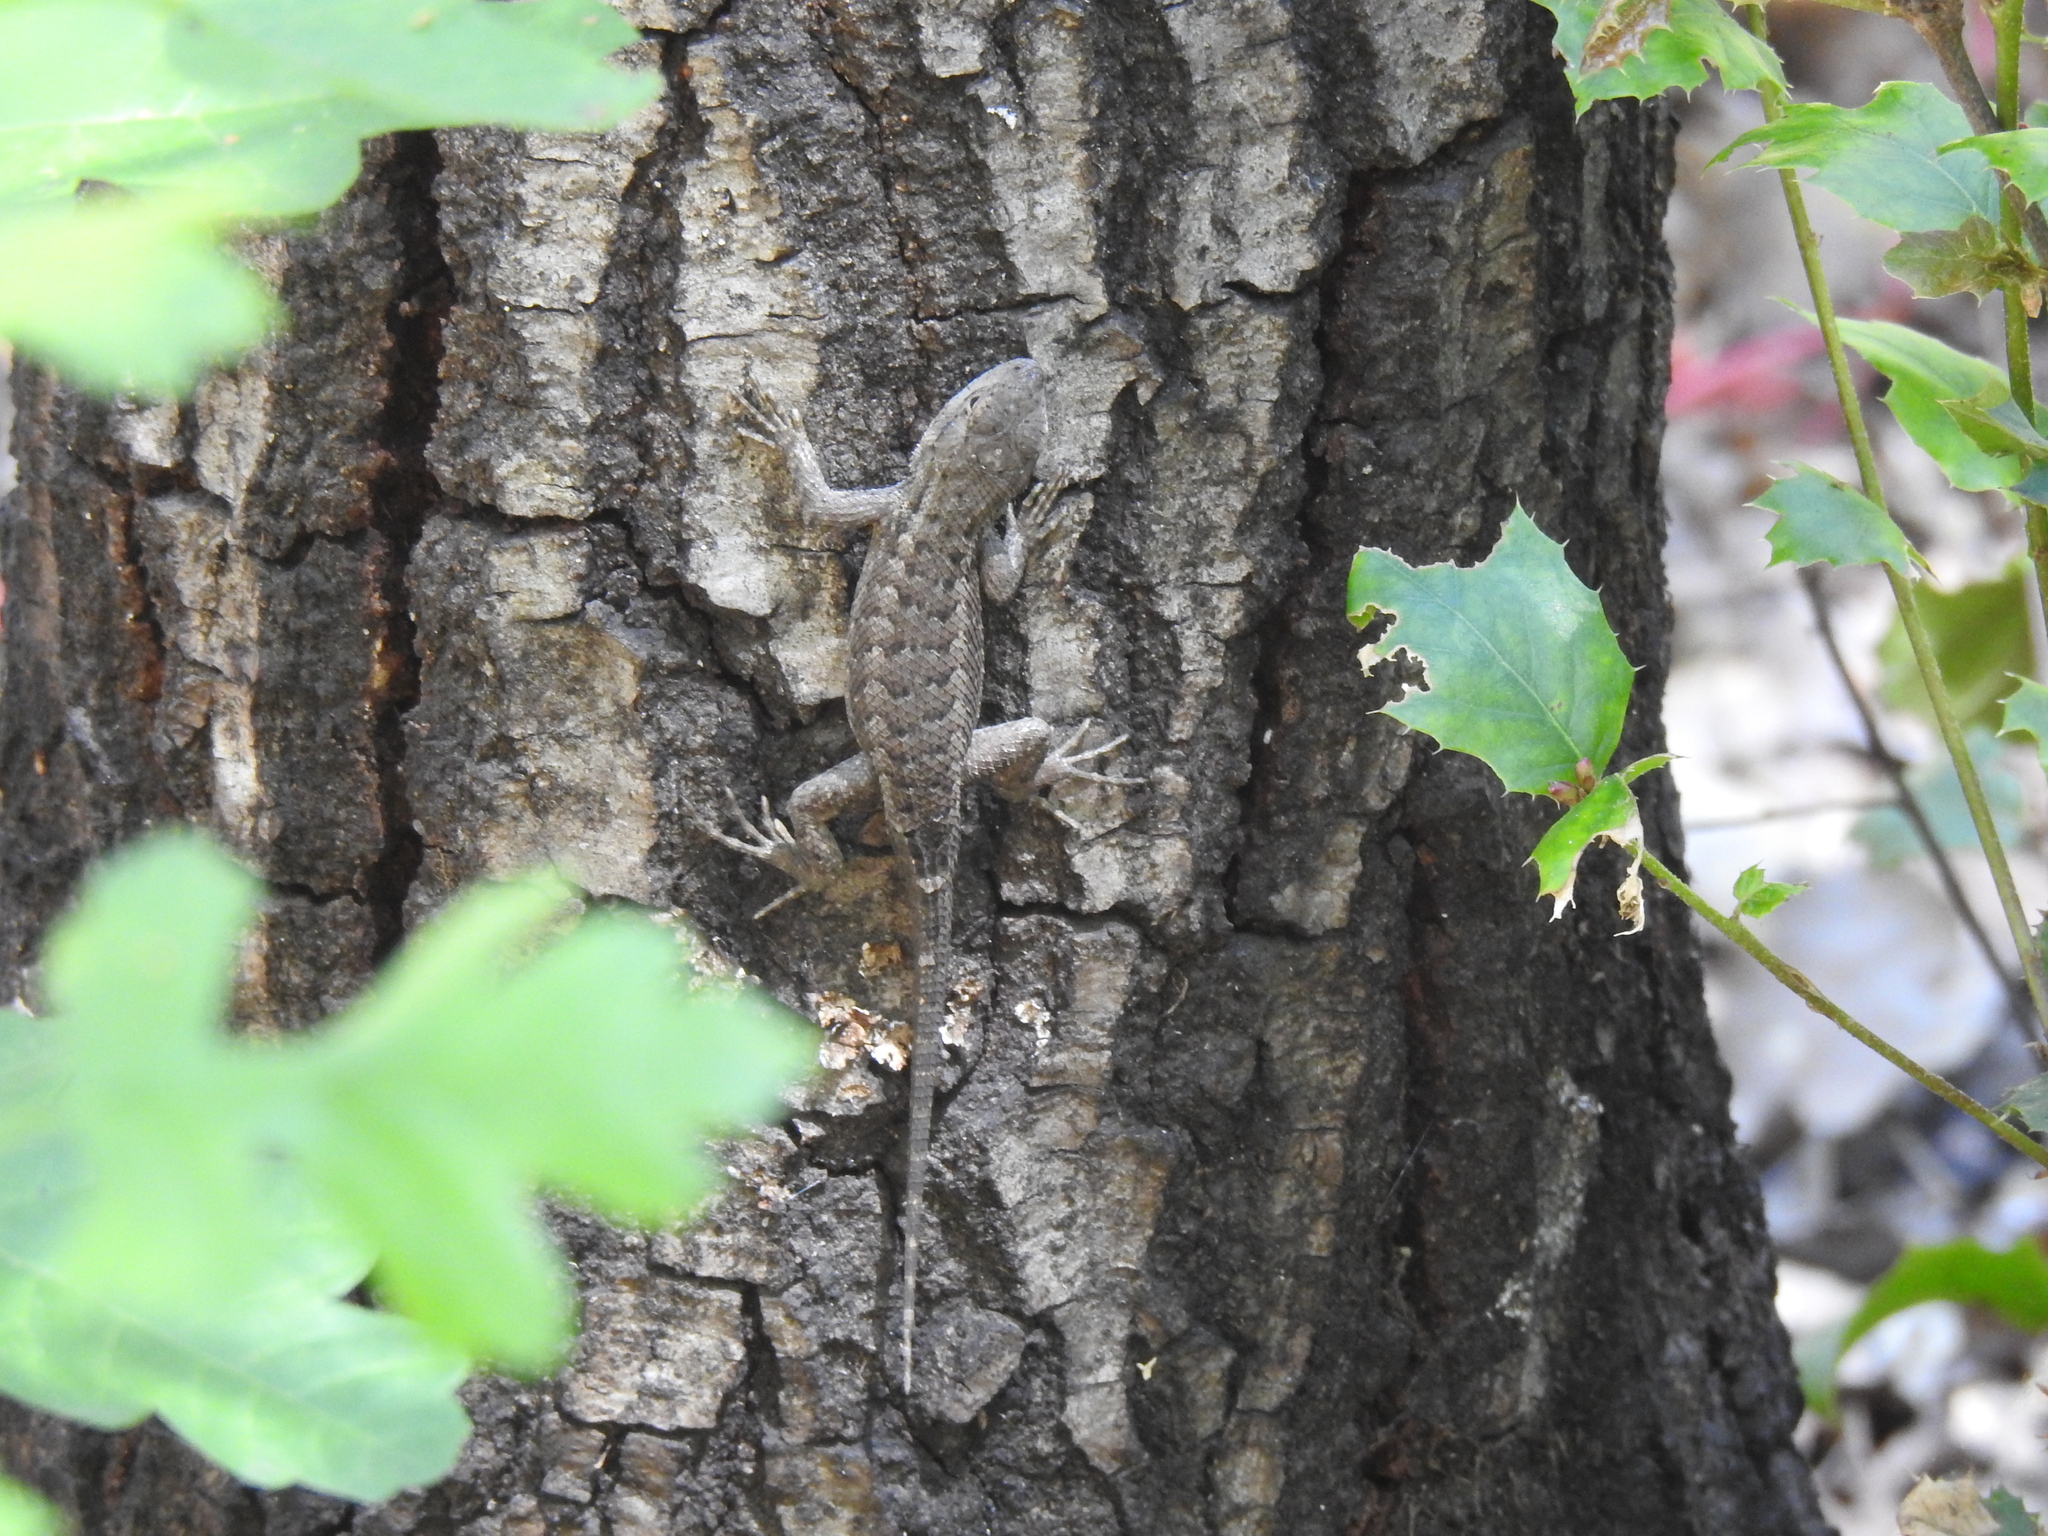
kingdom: Animalia
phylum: Chordata
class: Squamata
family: Phrynosomatidae
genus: Sceloporus
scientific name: Sceloporus occidentalis
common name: Western fence lizard
